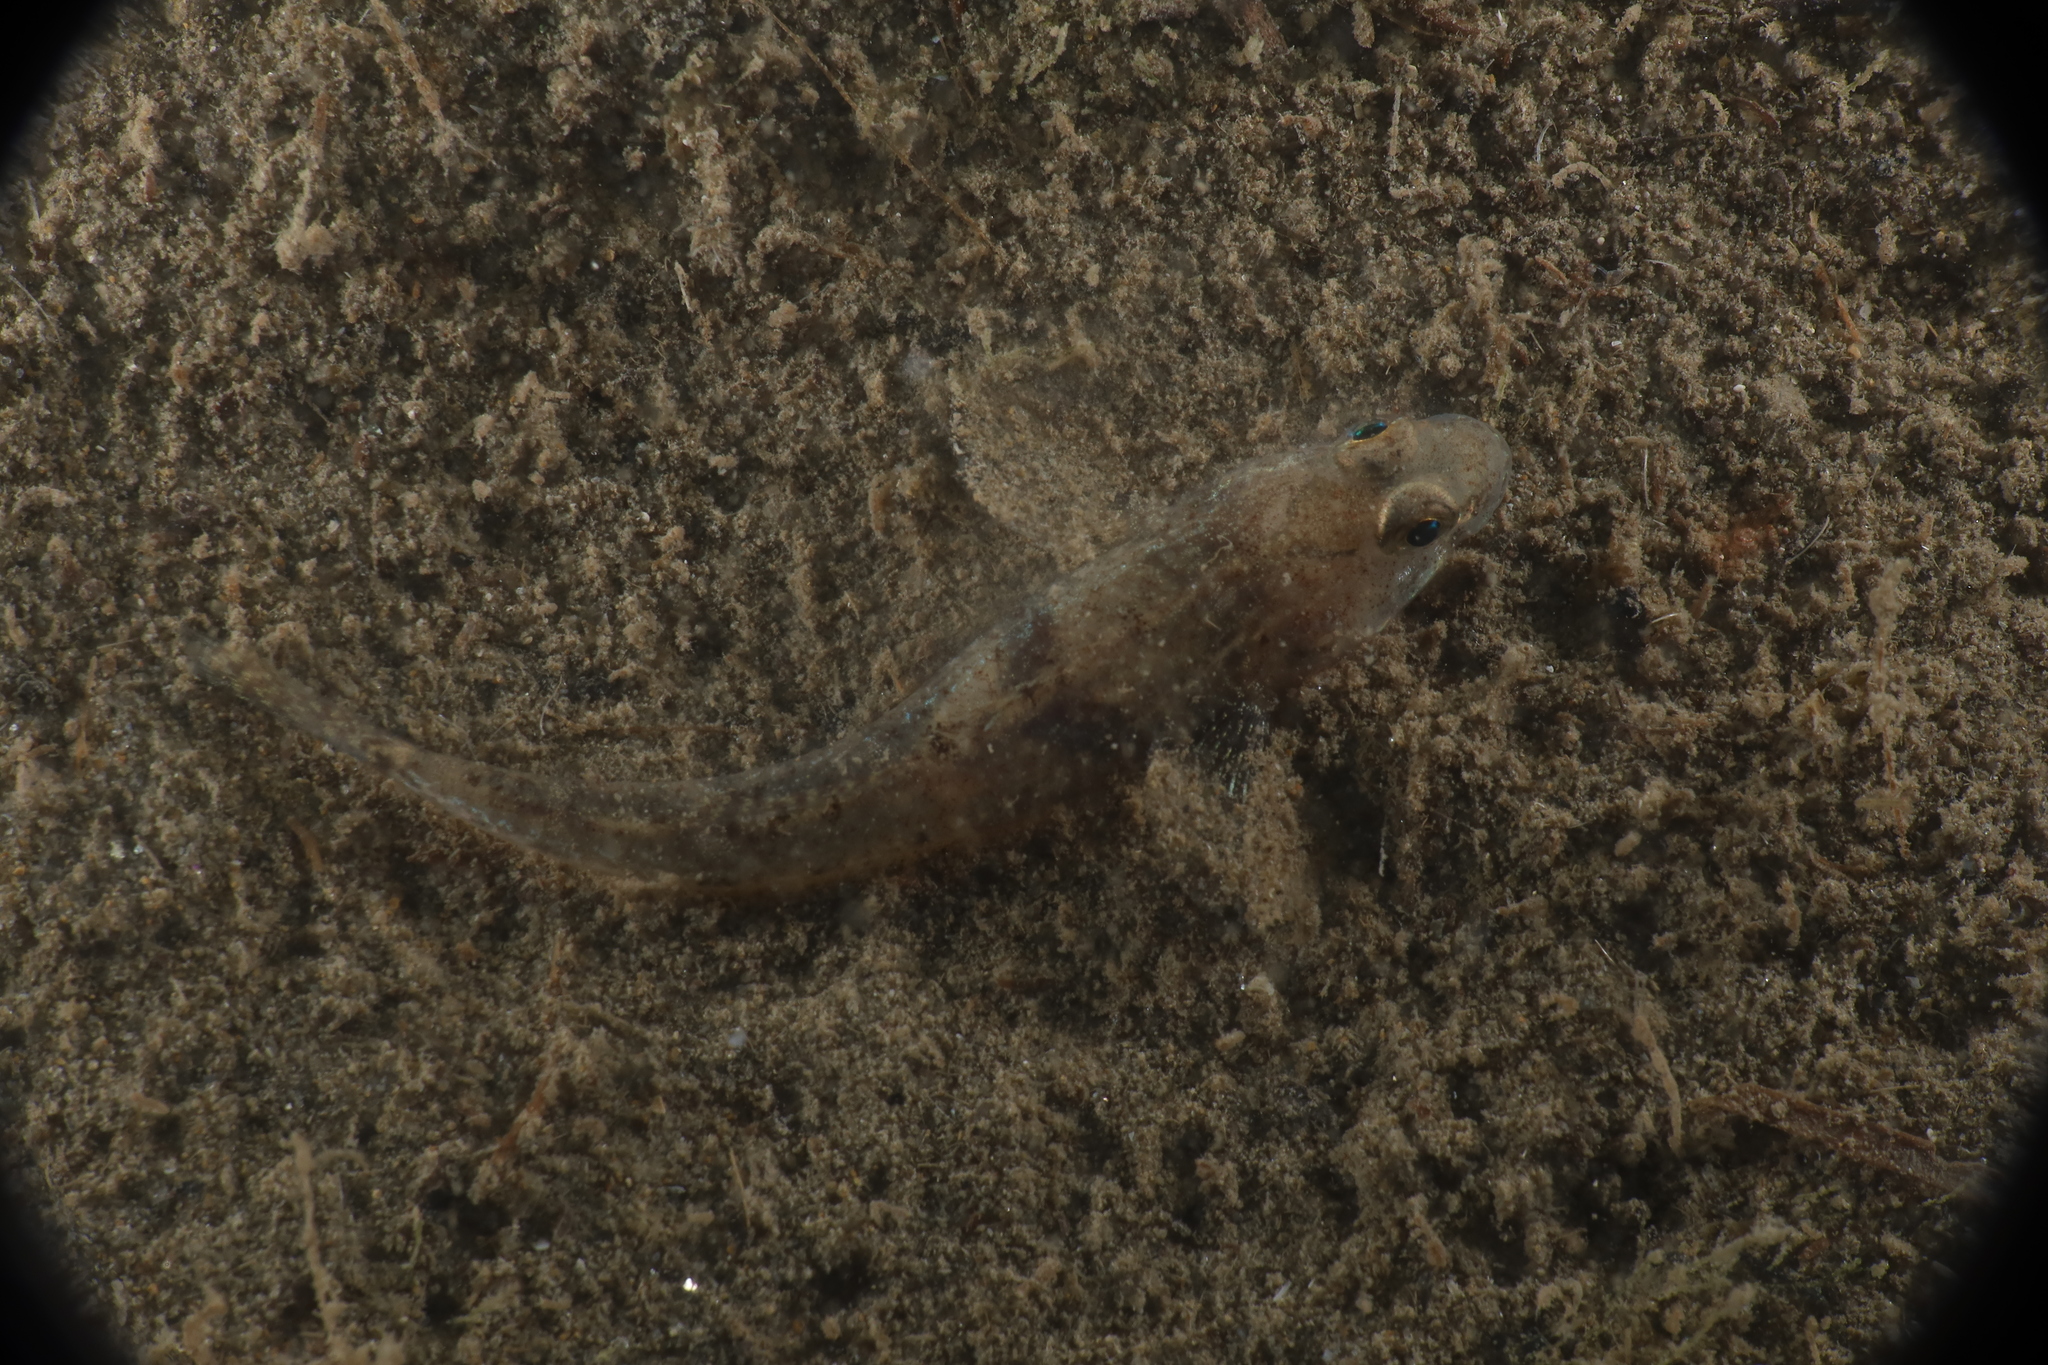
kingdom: Animalia
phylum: Chordata
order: Perciformes
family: Gobiidae
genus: Pomatoschistus
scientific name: Pomatoschistus minutus
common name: Sand goby
